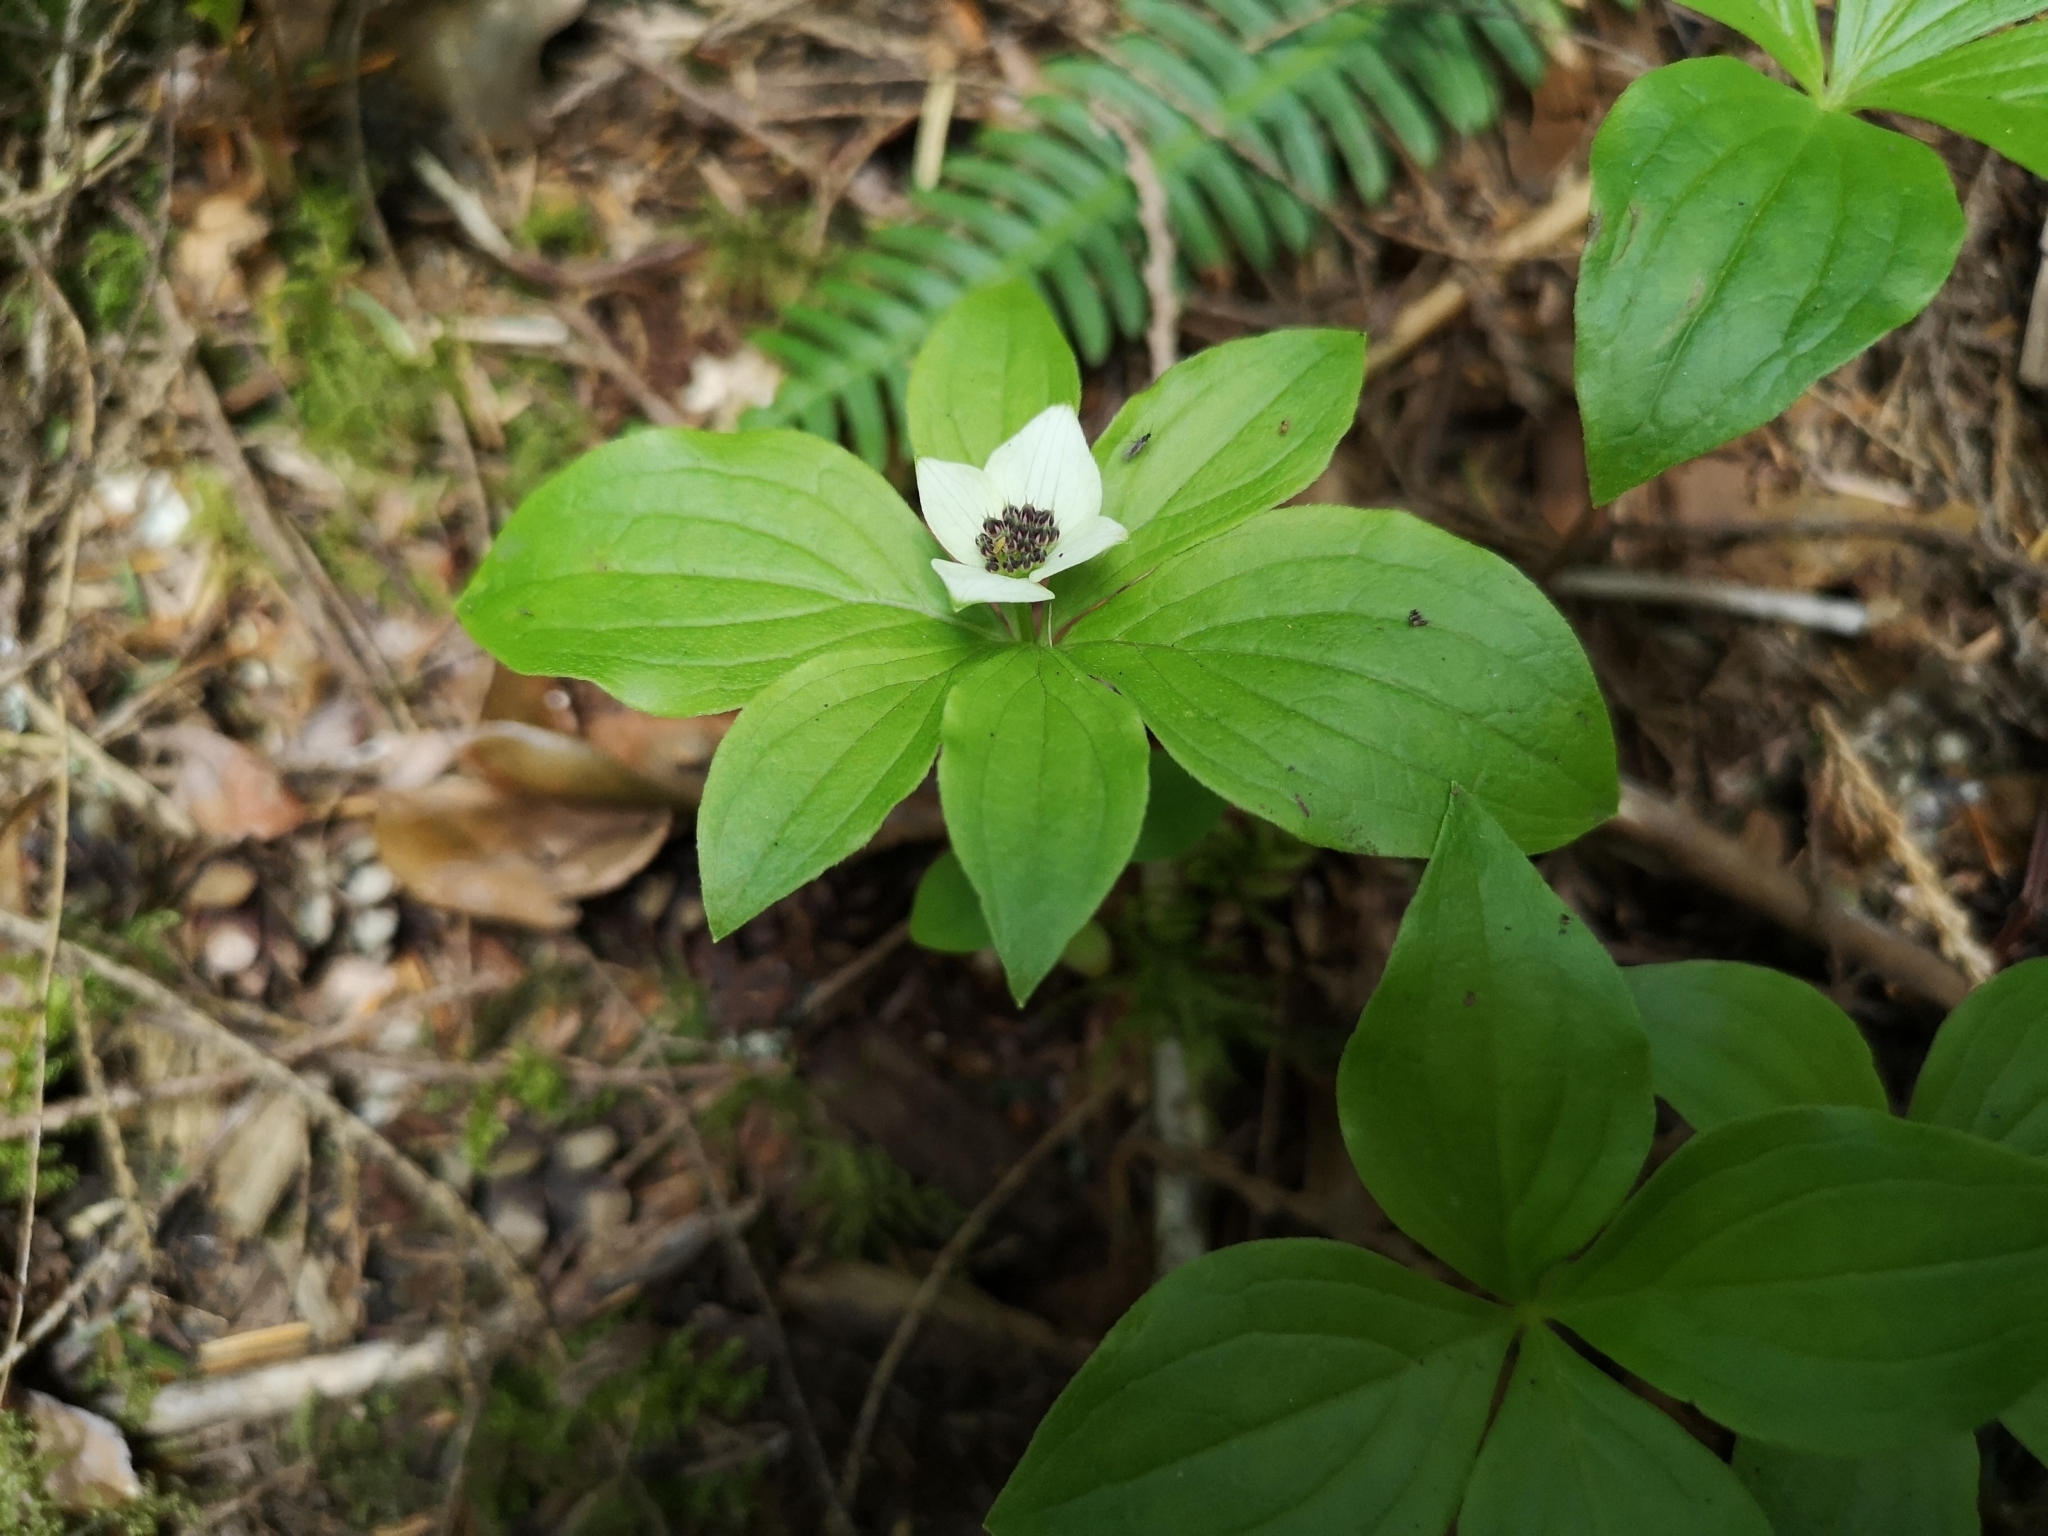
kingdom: Plantae
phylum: Tracheophyta
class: Magnoliopsida
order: Cornales
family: Cornaceae
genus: Cornus
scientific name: Cornus unalaschkensis
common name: Alaska bunchberry
